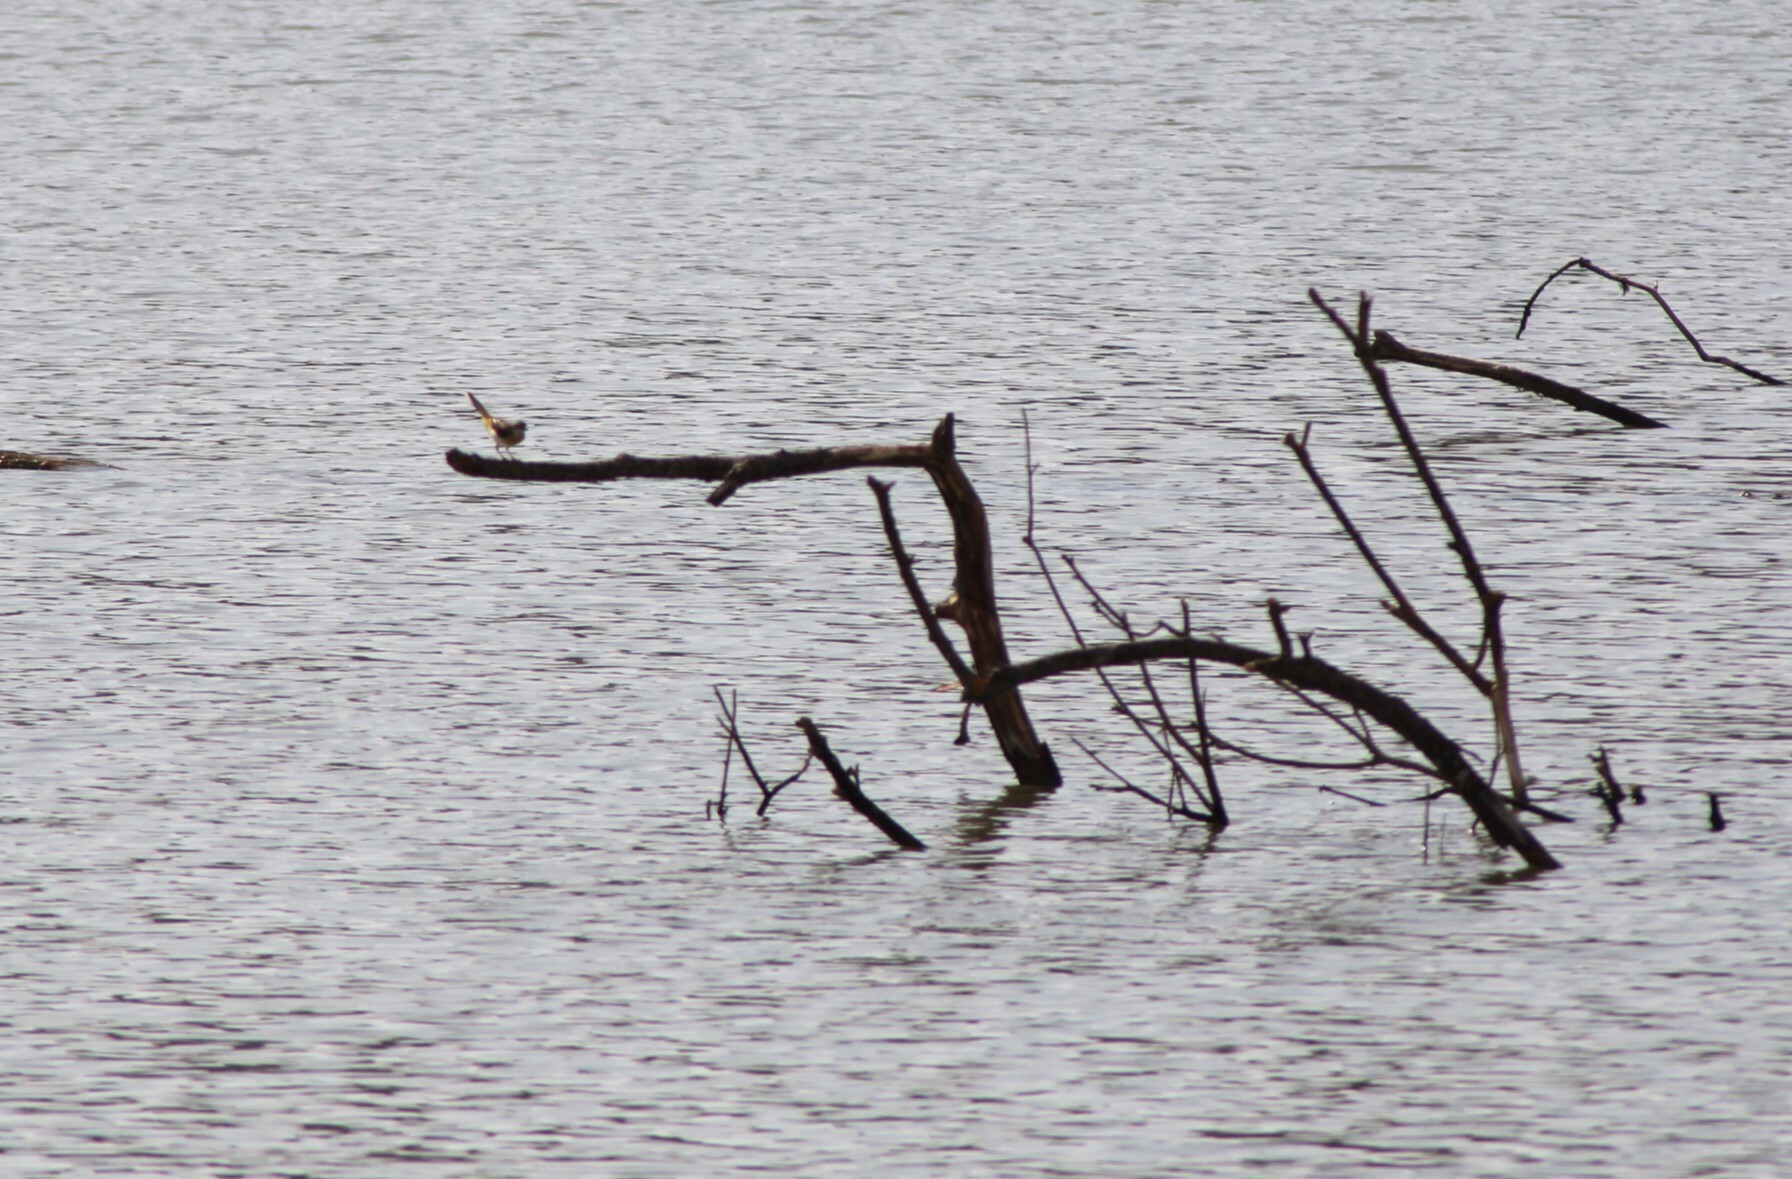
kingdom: Animalia
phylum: Chordata
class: Aves
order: Passeriformes
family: Motacillidae
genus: Motacilla
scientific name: Motacilla cinerea
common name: Grey wagtail
